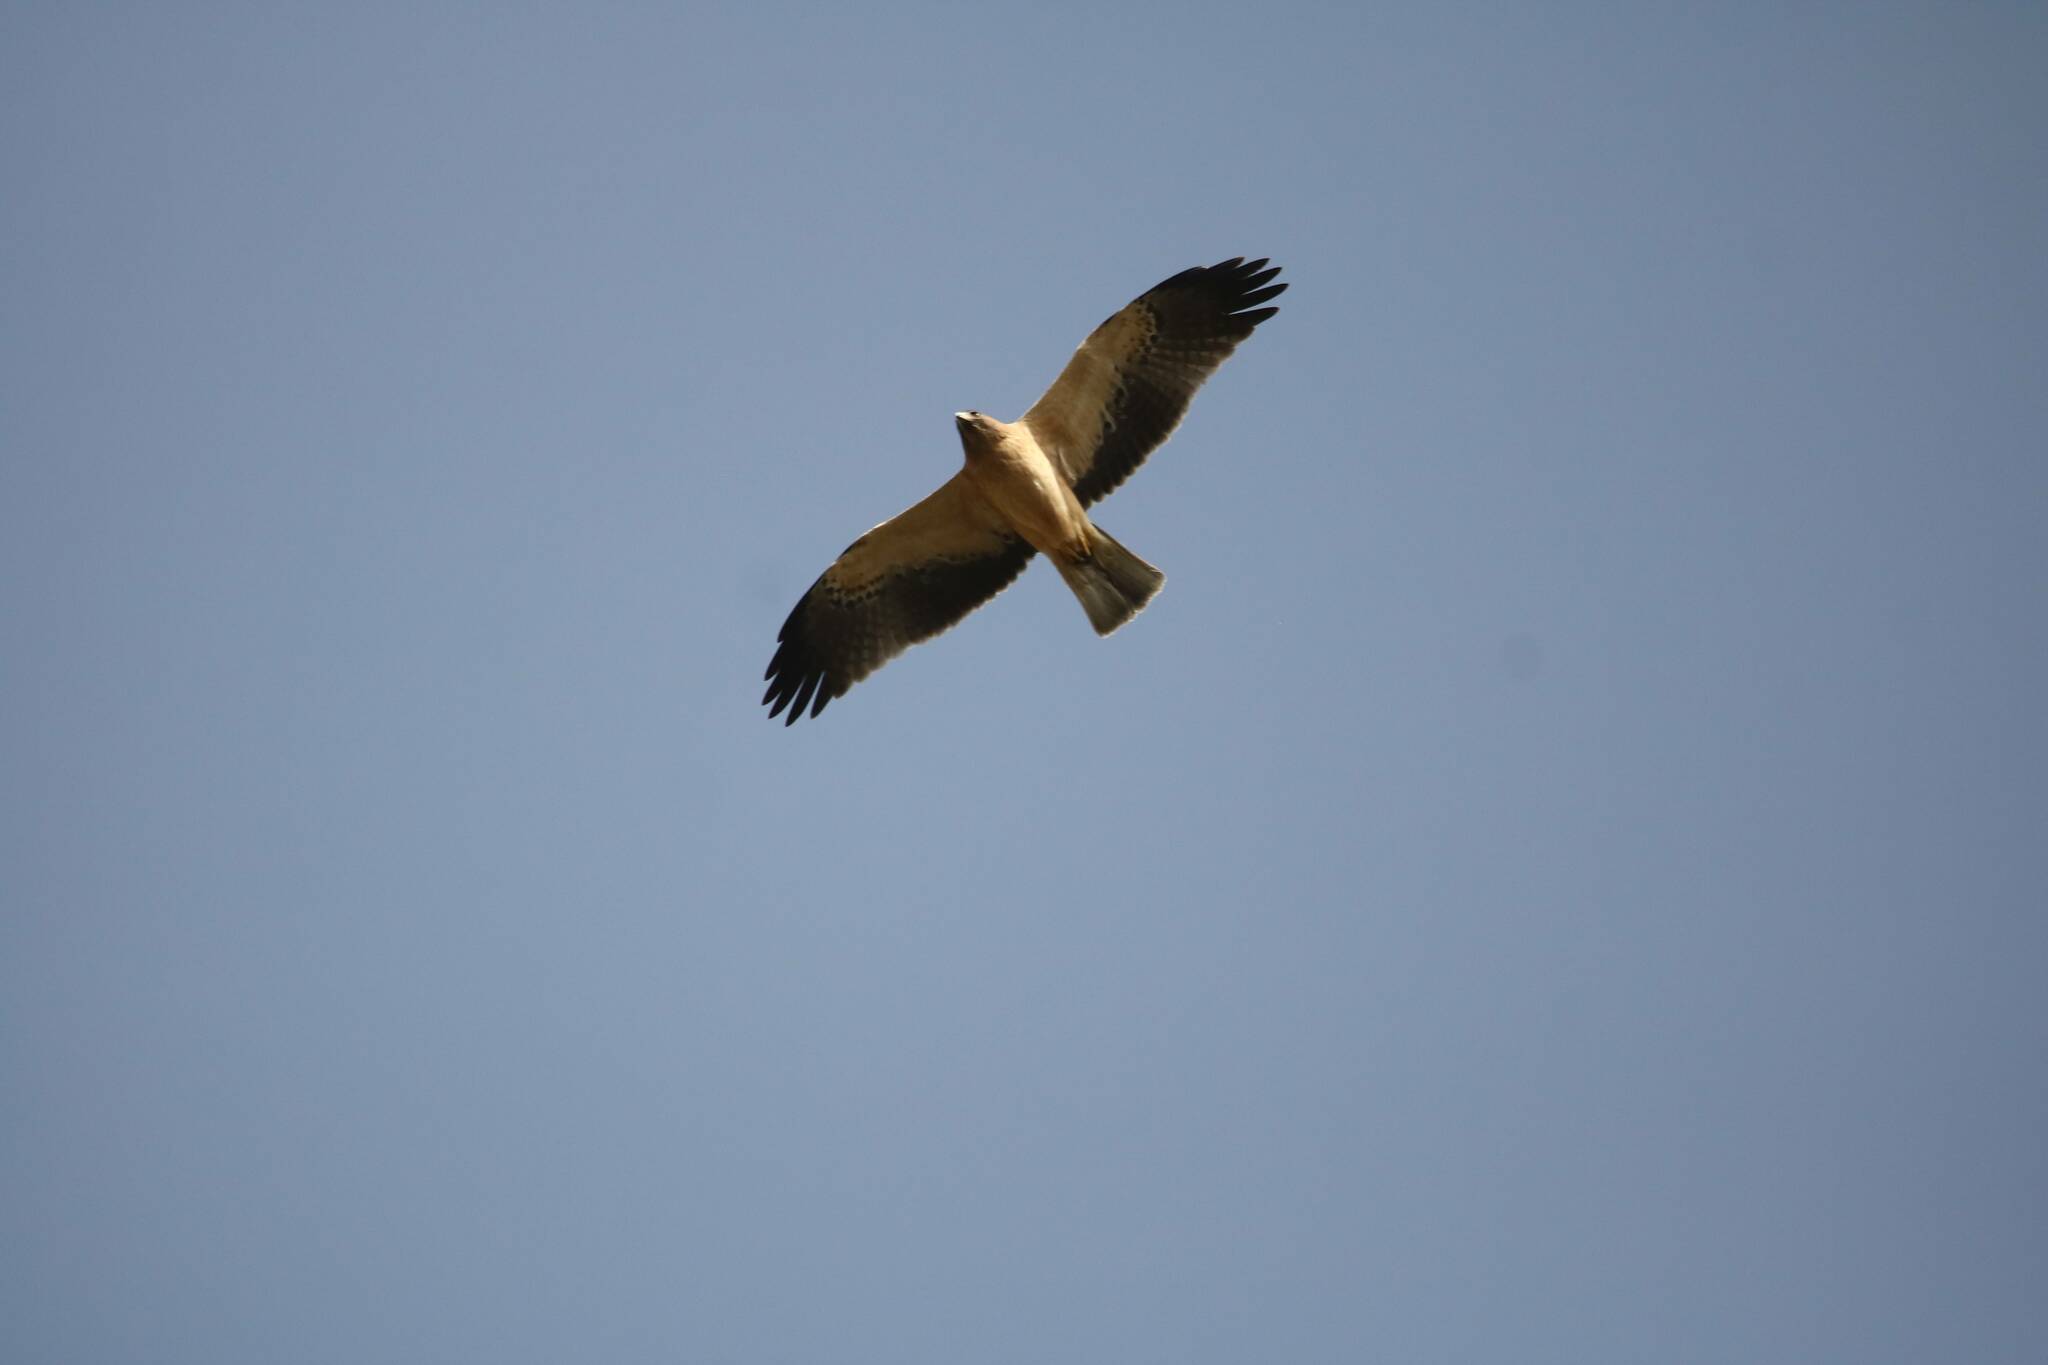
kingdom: Animalia
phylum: Chordata
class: Aves
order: Accipitriformes
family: Accipitridae
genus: Hieraaetus
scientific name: Hieraaetus pennatus
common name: Booted eagle
